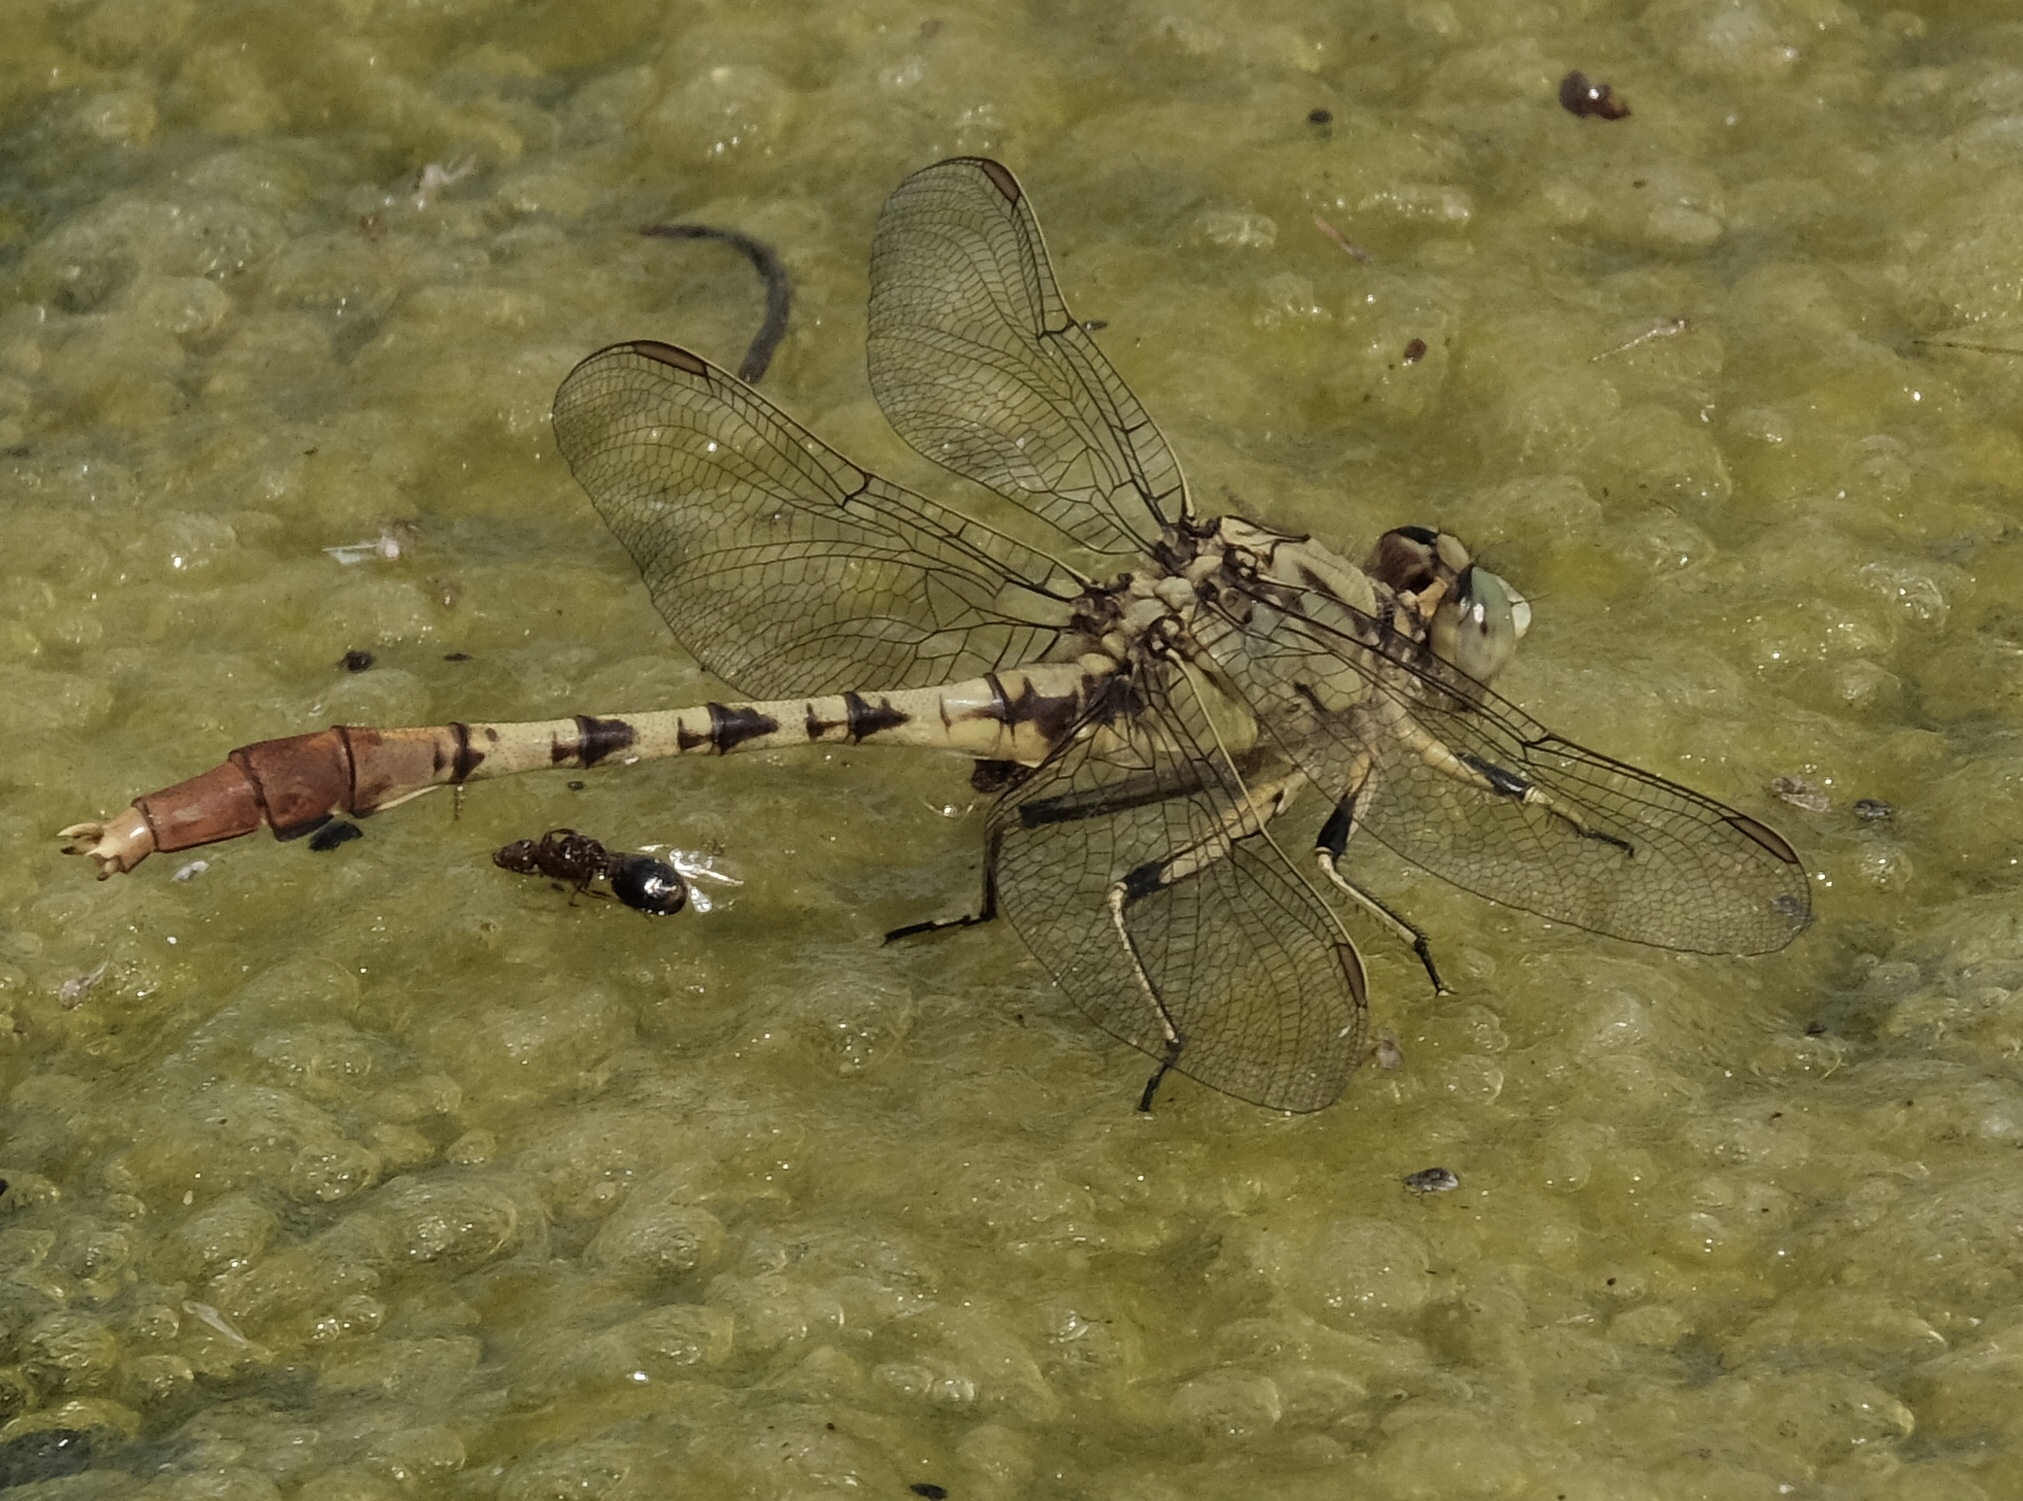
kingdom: Animalia
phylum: Arthropoda
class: Insecta
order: Odonata
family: Gomphidae
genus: Arigomphus
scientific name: Arigomphus submedianus
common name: Jade clubtail
